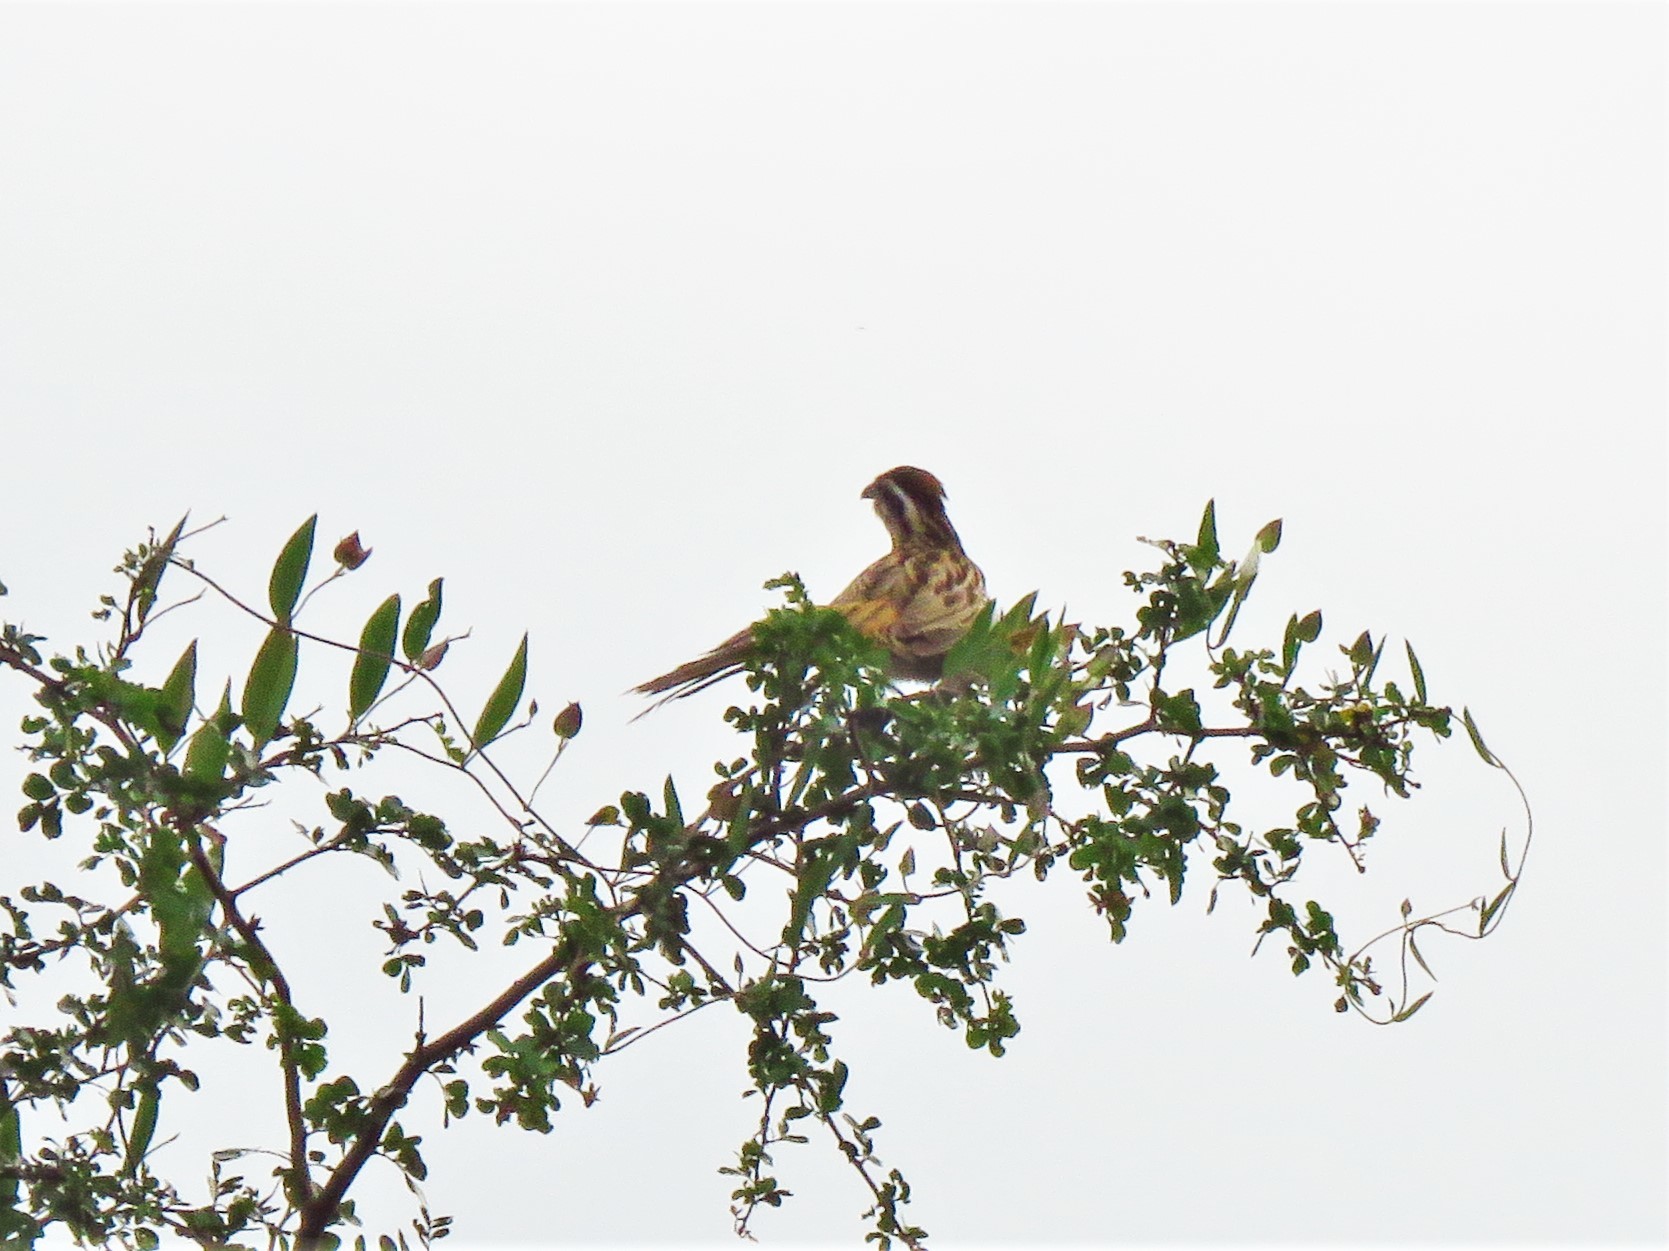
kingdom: Animalia
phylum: Chordata
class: Aves
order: Cuculiformes
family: Cuculidae
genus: Tapera
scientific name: Tapera naevia
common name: Striped cuckoo
